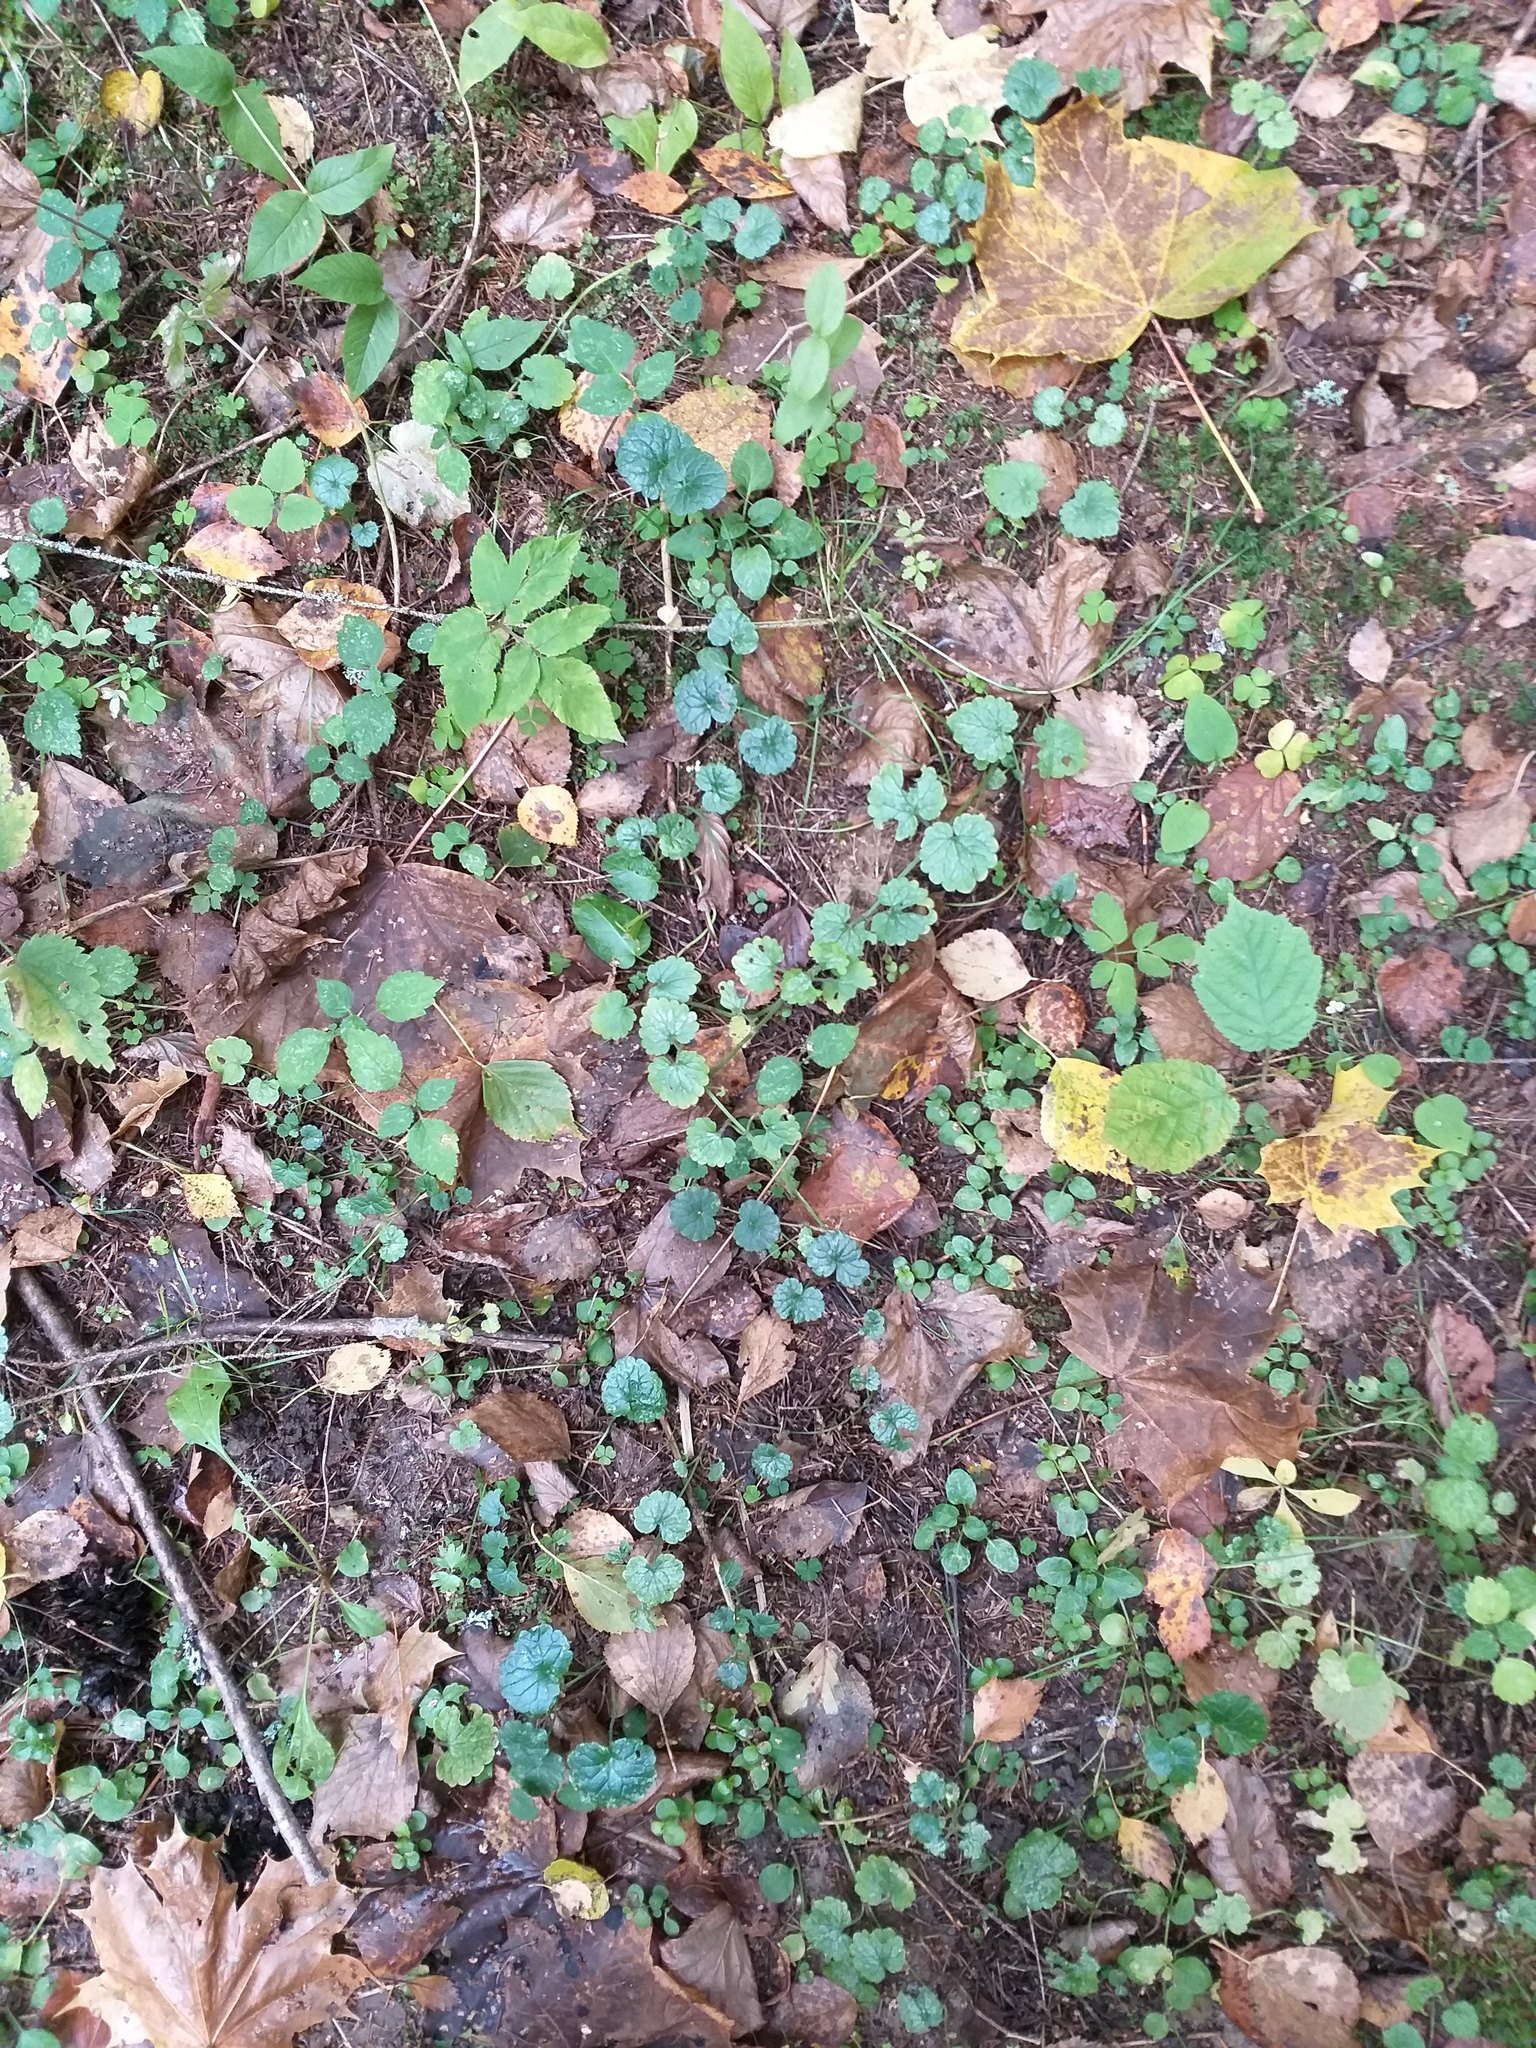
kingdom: Plantae
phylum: Tracheophyta
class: Magnoliopsida
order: Lamiales
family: Lamiaceae
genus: Glechoma
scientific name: Glechoma hederacea
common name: Ground ivy
